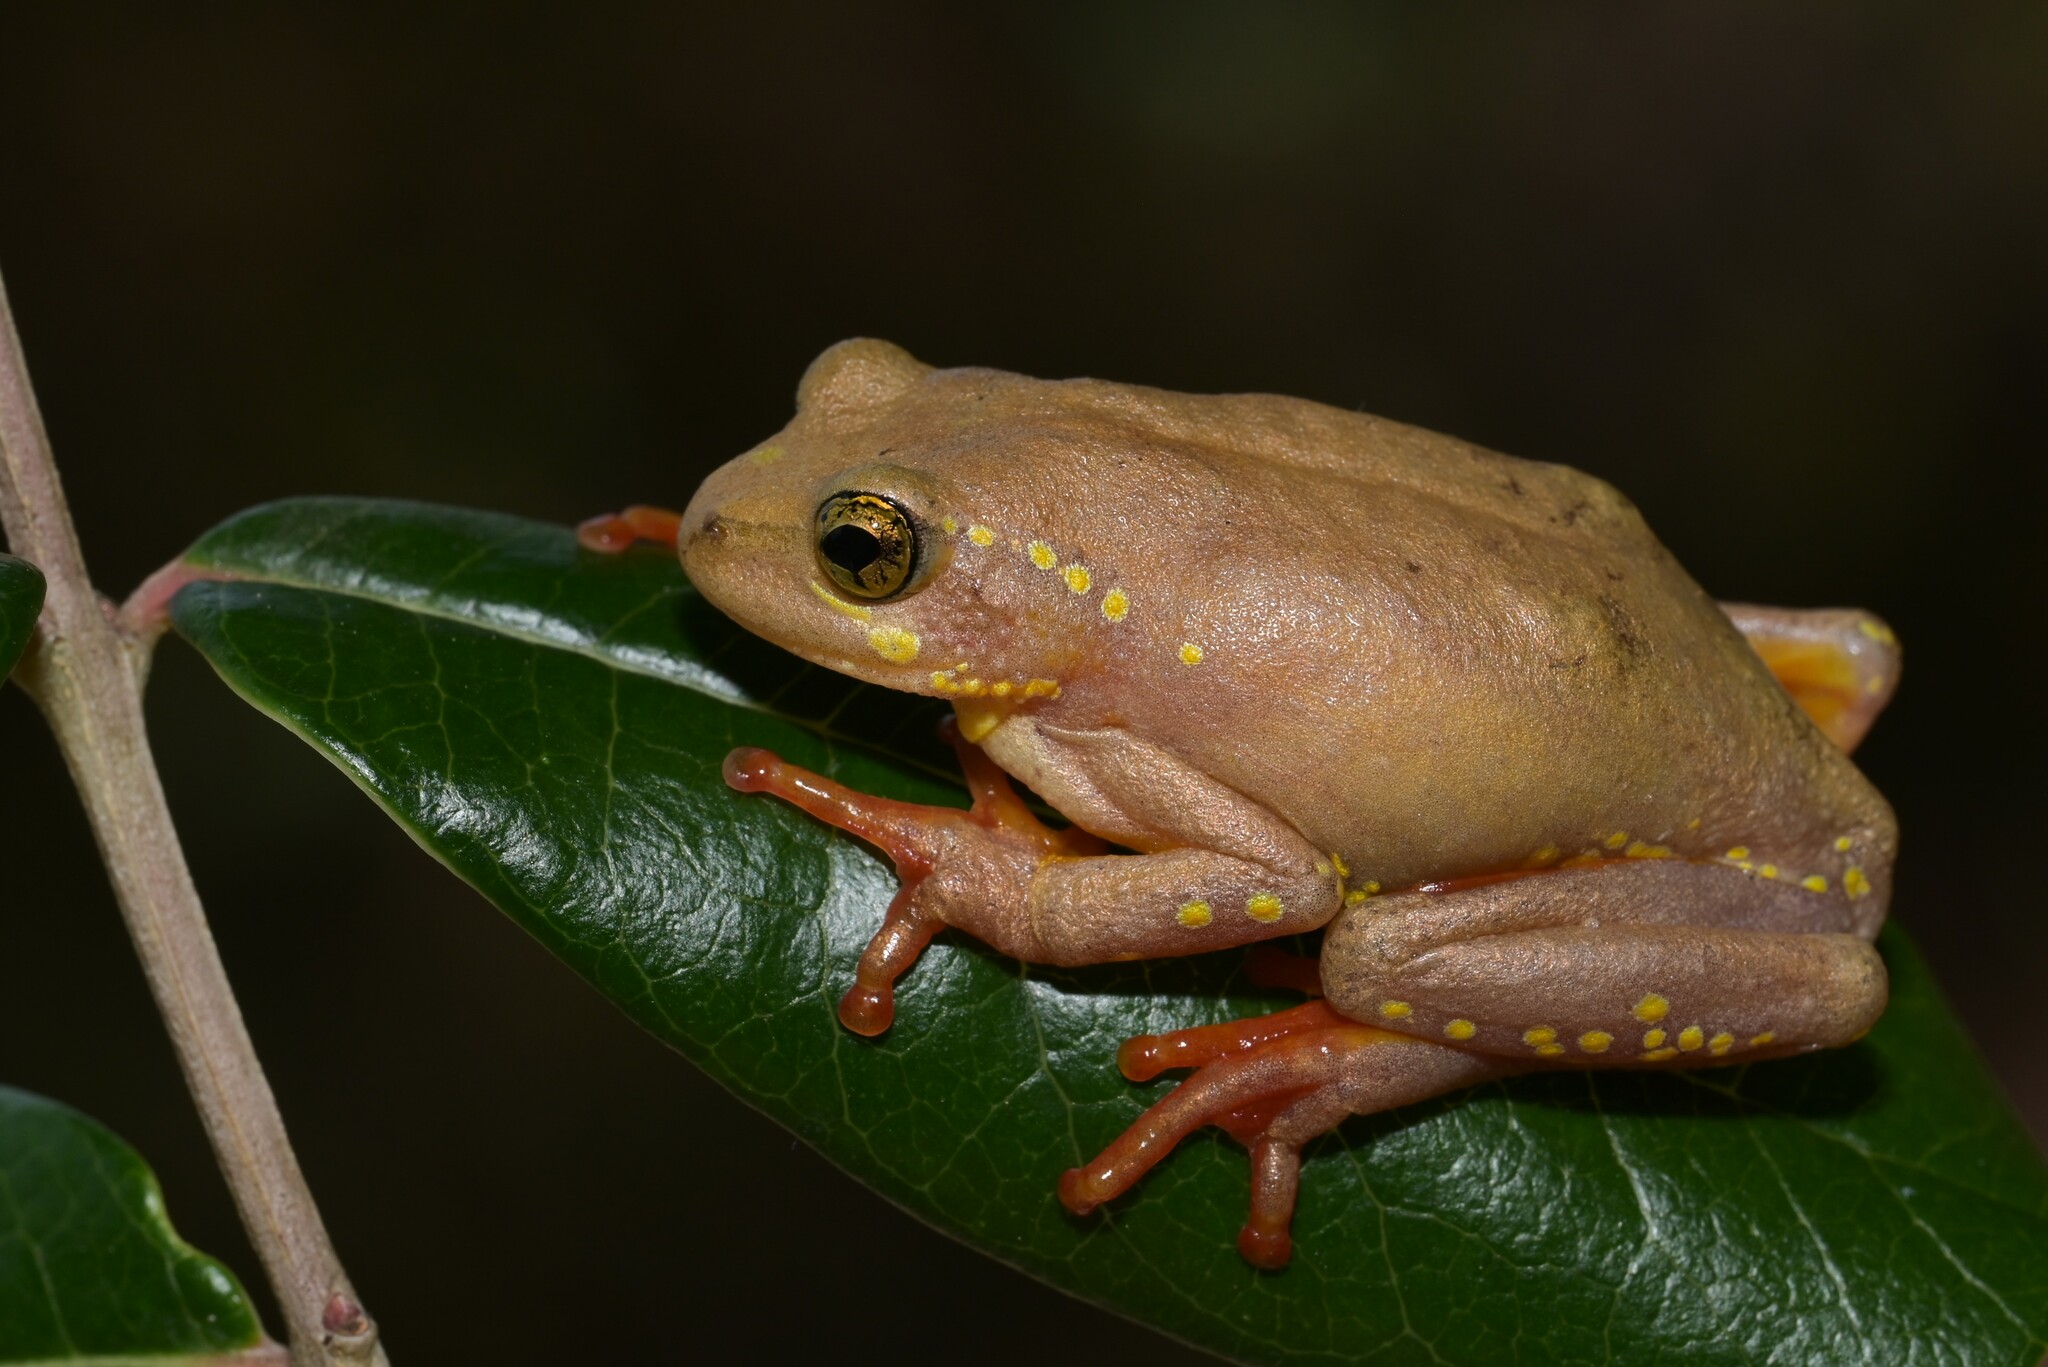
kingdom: Animalia
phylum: Chordata
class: Amphibia
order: Anura
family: Hyperoliidae
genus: Hyperolius
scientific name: Hyperolius pictus
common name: Variable reed frog
